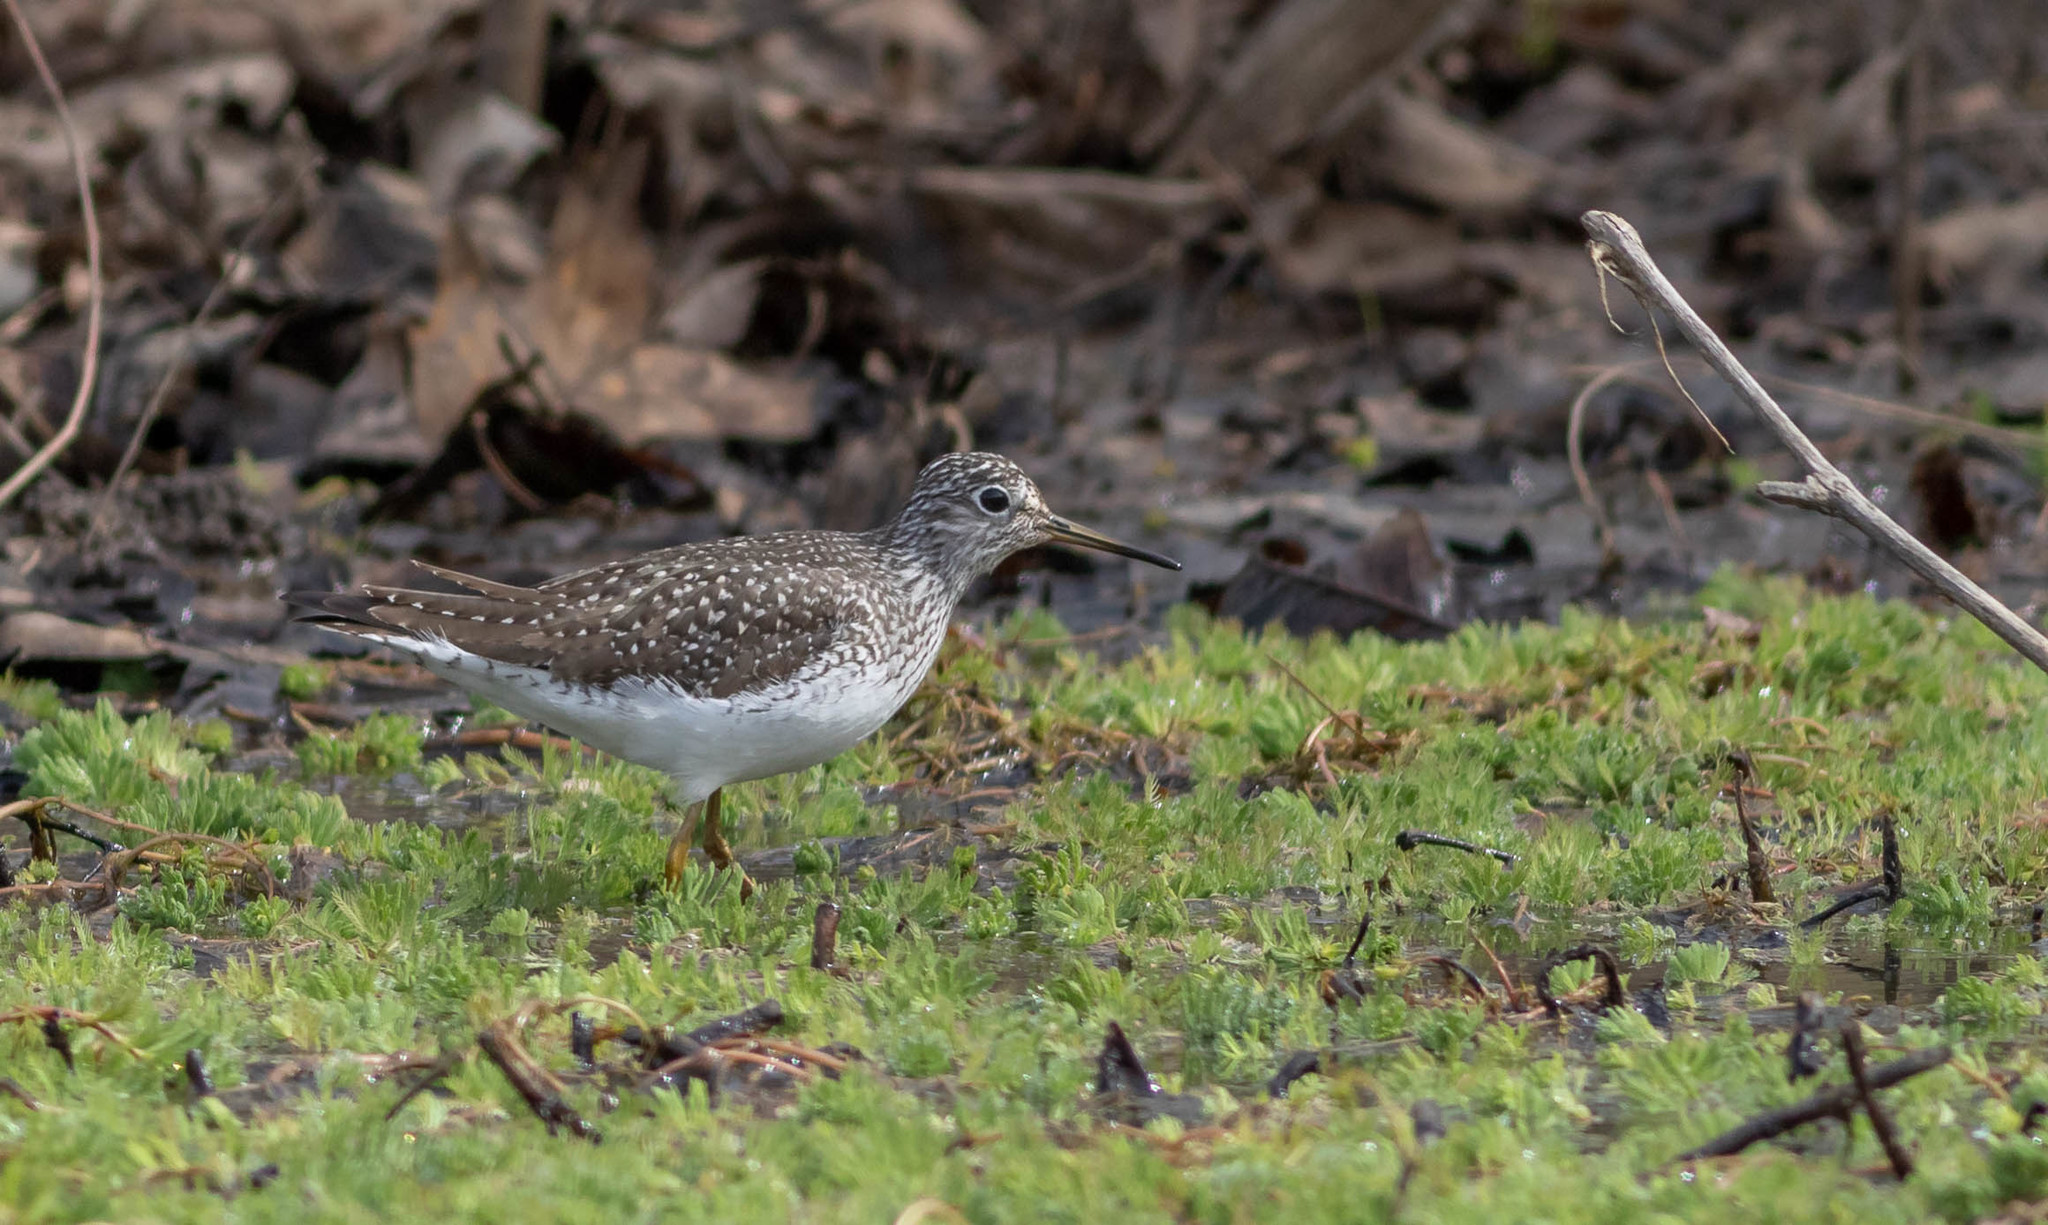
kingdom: Animalia
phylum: Chordata
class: Aves
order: Charadriiformes
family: Scolopacidae
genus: Tringa
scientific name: Tringa solitaria
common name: Solitary sandpiper
